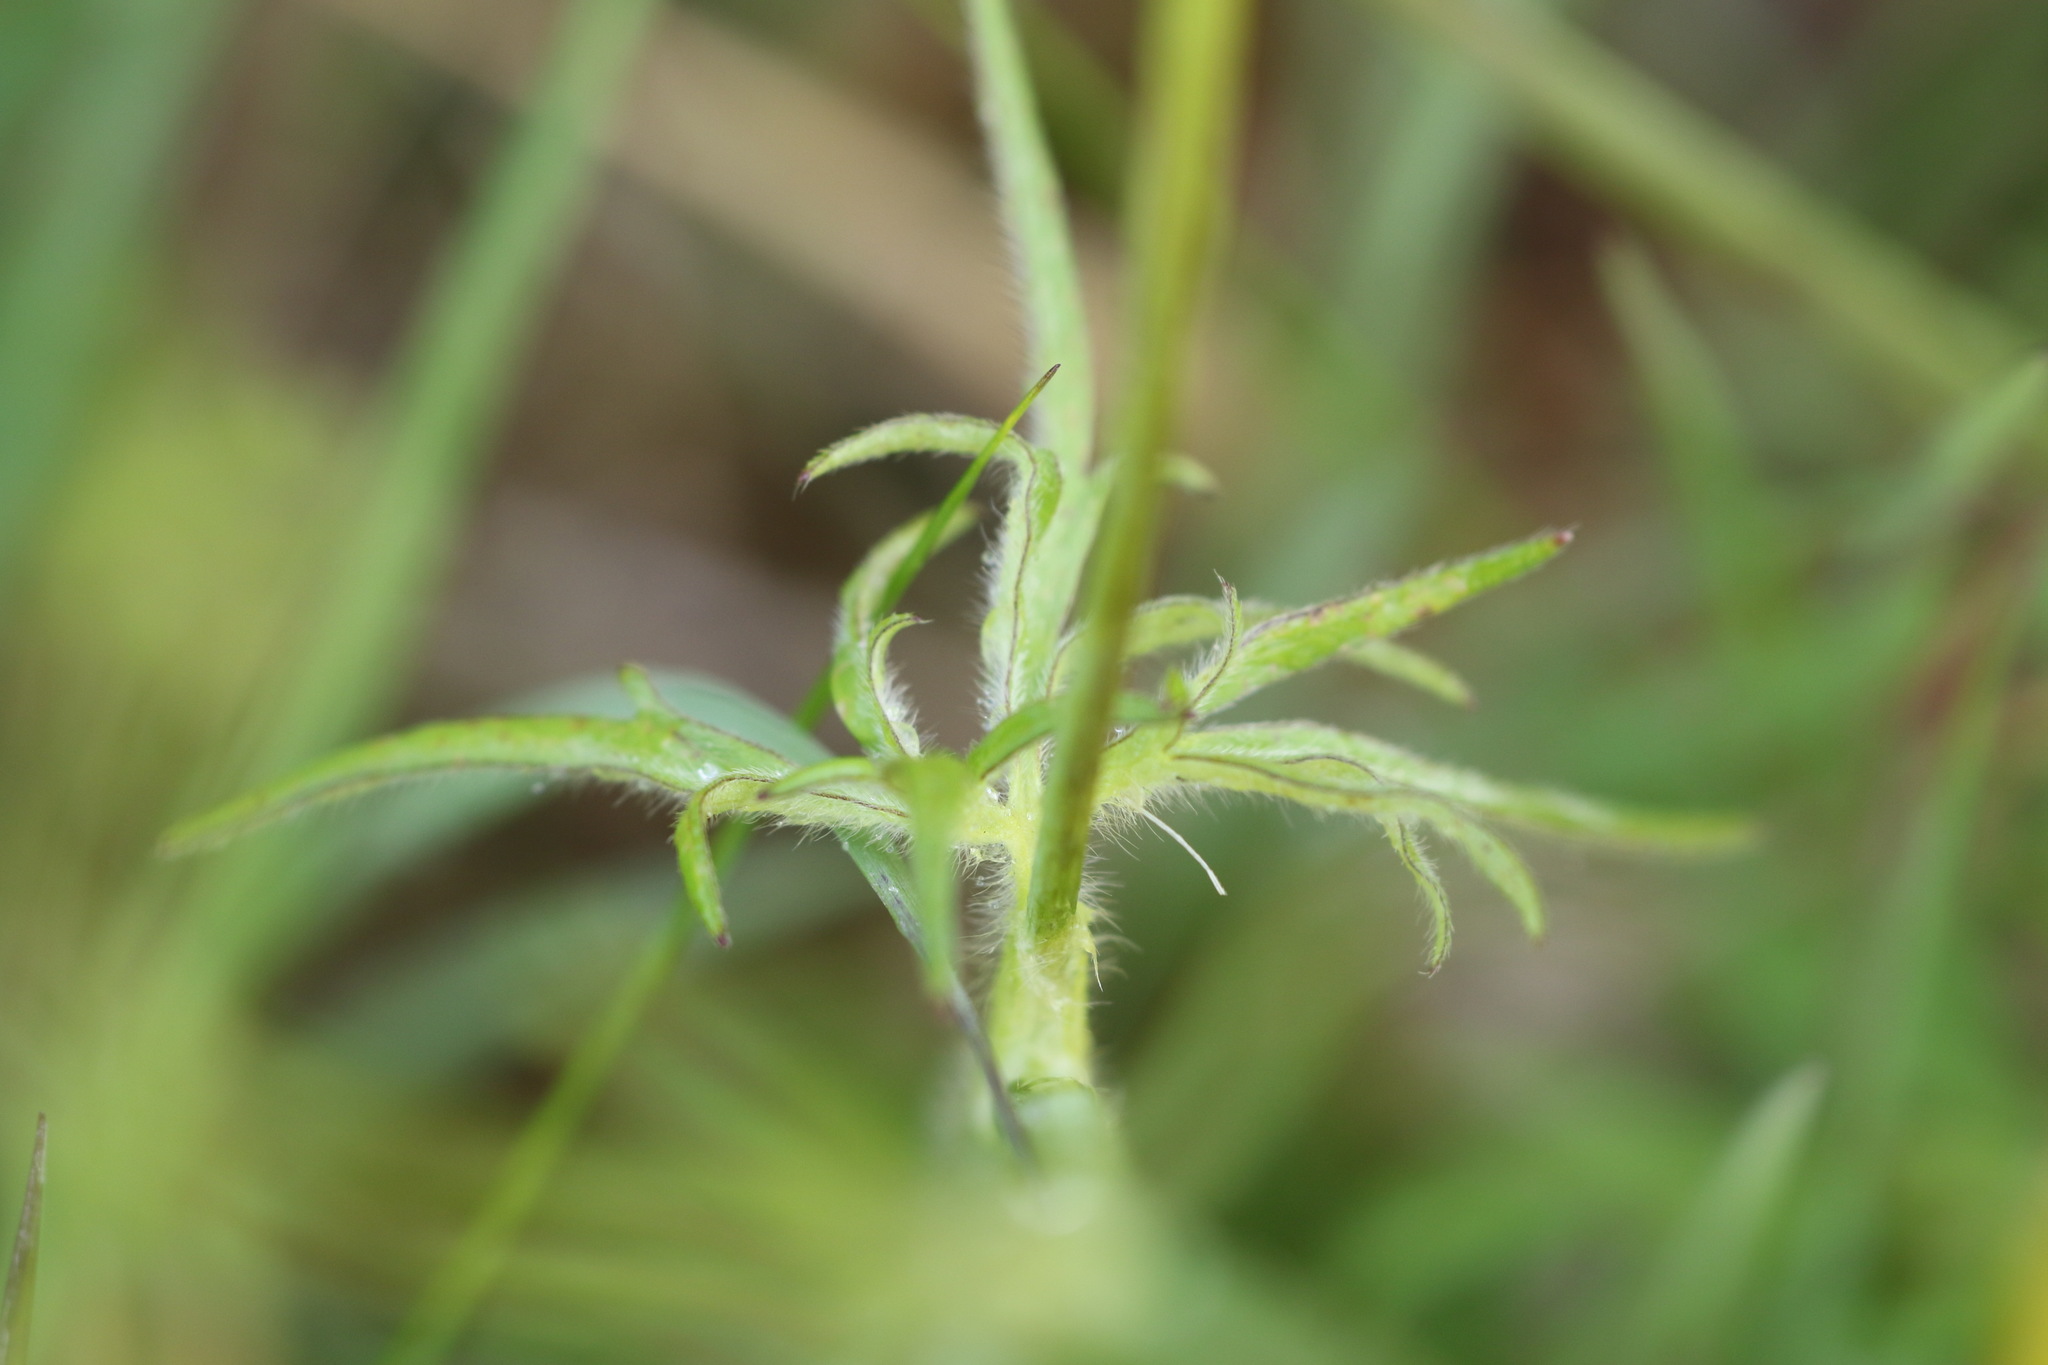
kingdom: Plantae
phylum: Tracheophyta
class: Magnoliopsida
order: Ranunculales
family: Ranunculaceae
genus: Ranunculus
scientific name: Ranunculus acris
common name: Meadow buttercup
